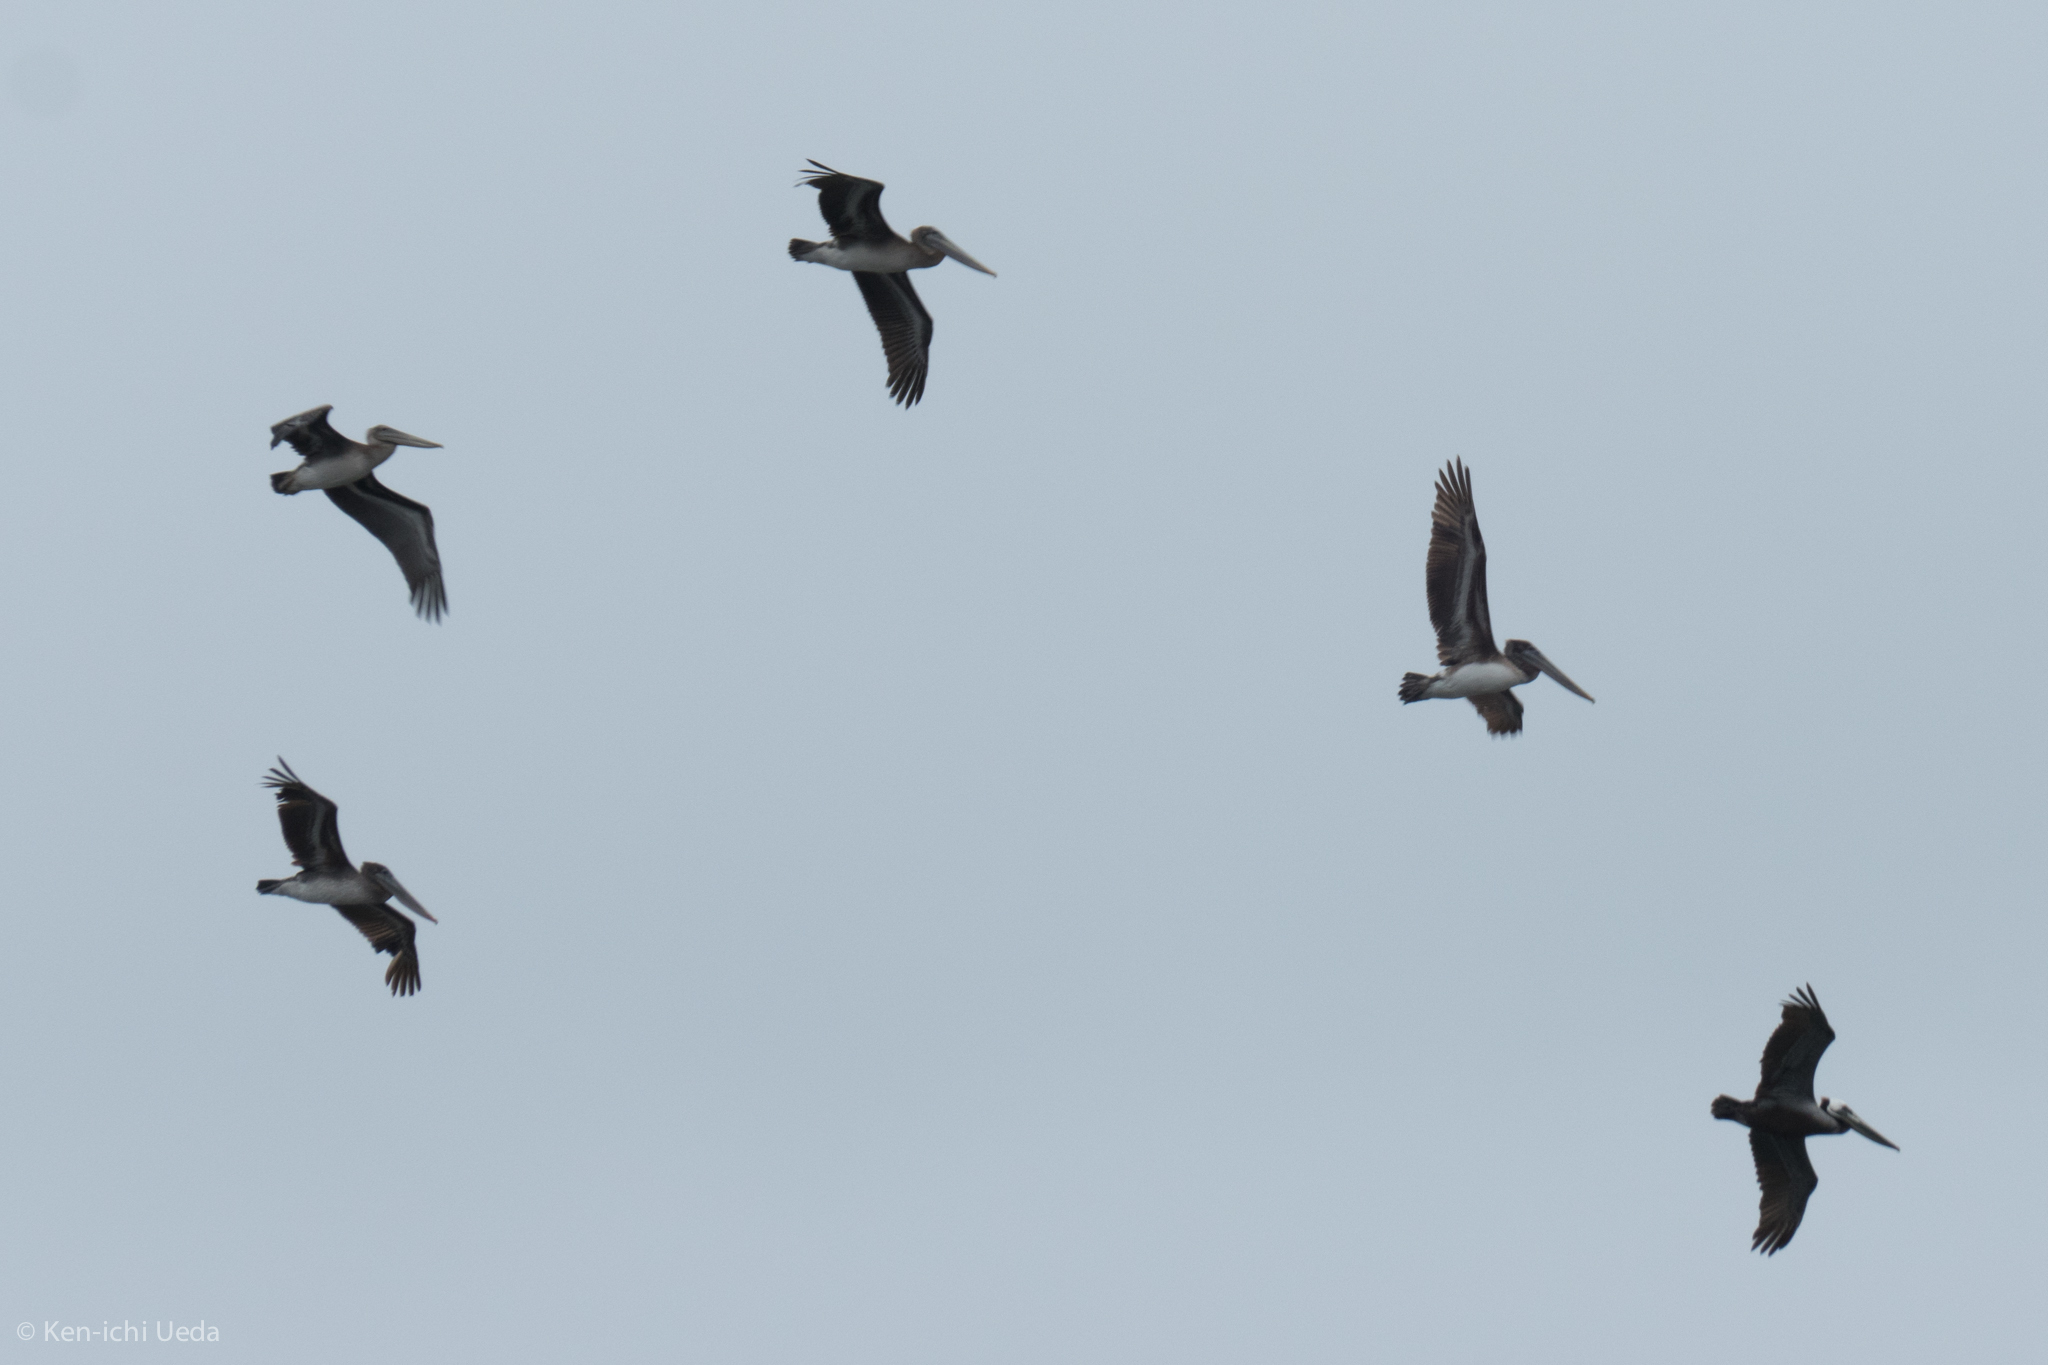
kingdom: Animalia
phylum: Chordata
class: Aves
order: Pelecaniformes
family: Pelecanidae
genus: Pelecanus
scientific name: Pelecanus occidentalis
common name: Brown pelican
